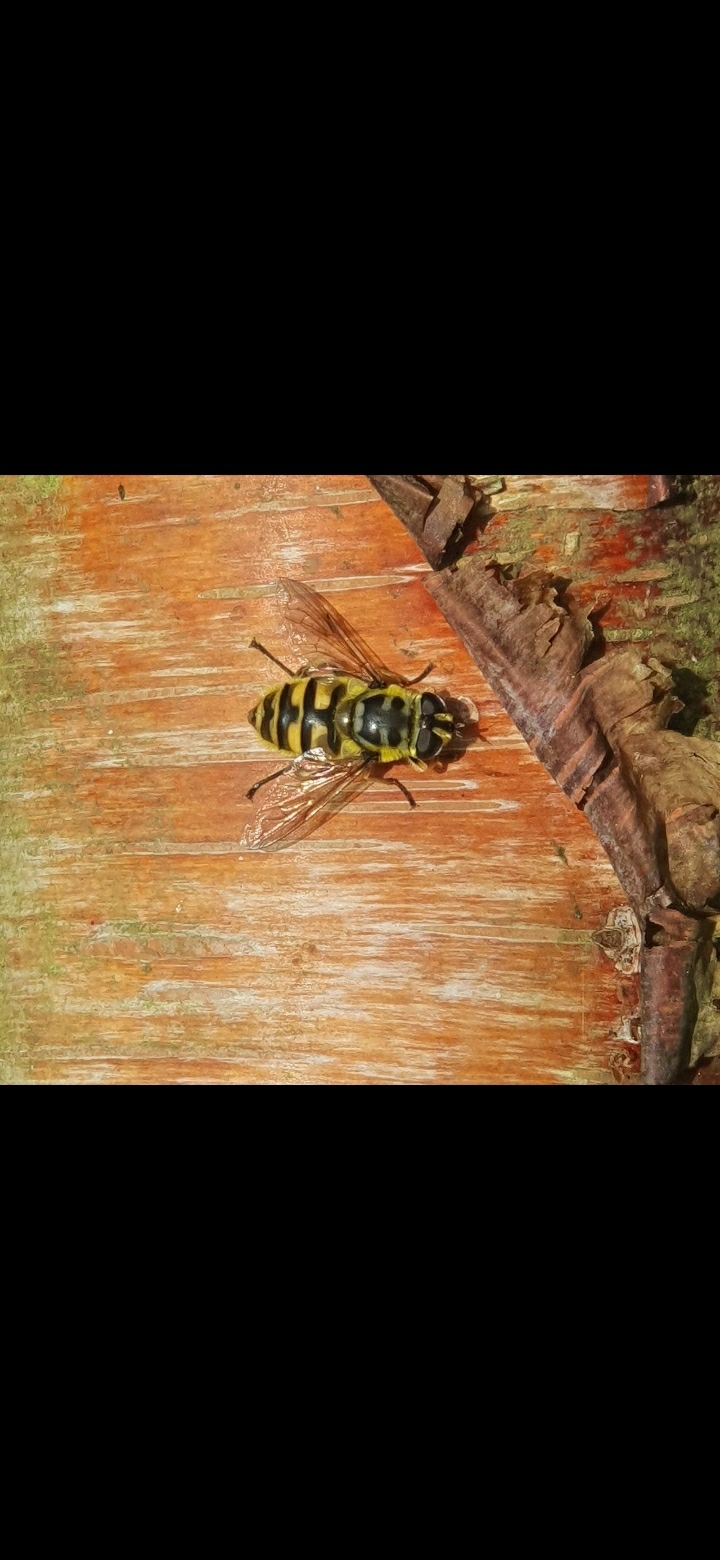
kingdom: Animalia
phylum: Arthropoda
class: Insecta
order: Diptera
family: Syrphidae
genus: Myathropa
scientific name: Myathropa florea
